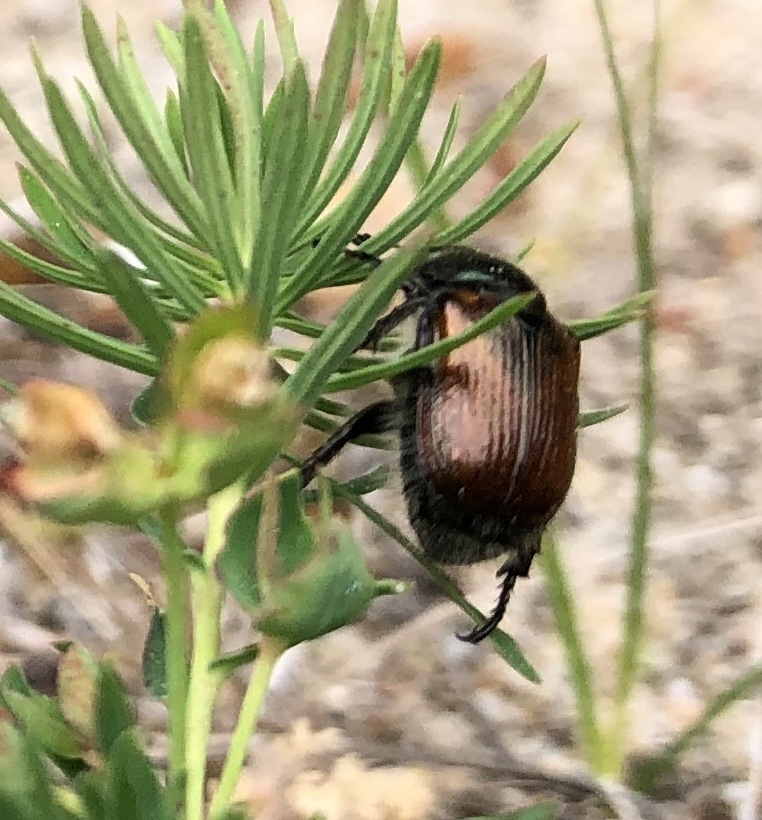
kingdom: Animalia
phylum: Arthropoda
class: Insecta
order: Coleoptera
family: Scarabaeidae
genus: Phyllopertha
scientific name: Phyllopertha horticola
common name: Garden chafer
